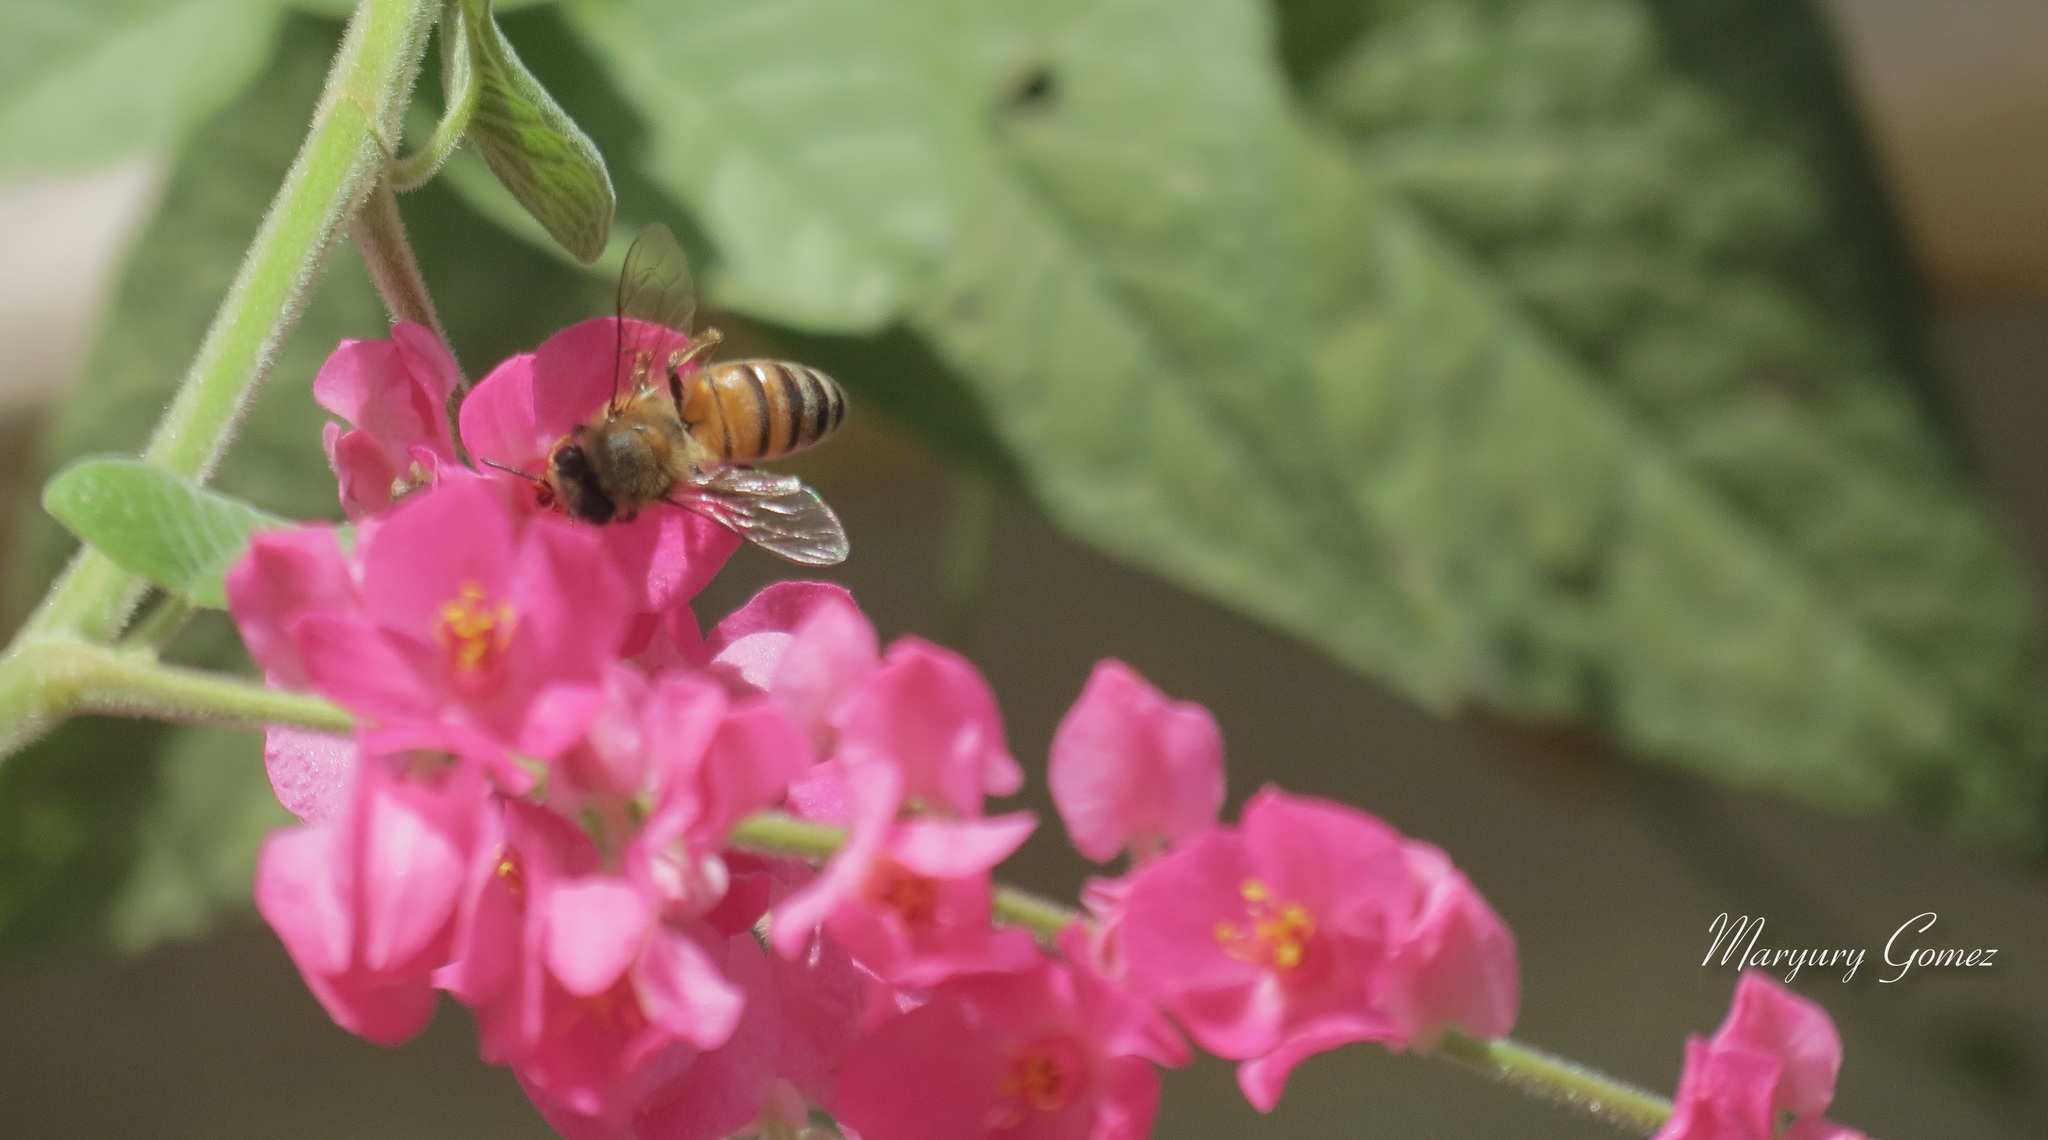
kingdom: Animalia
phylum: Arthropoda
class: Insecta
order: Hymenoptera
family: Apidae
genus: Apis
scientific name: Apis mellifera
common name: Honey bee
